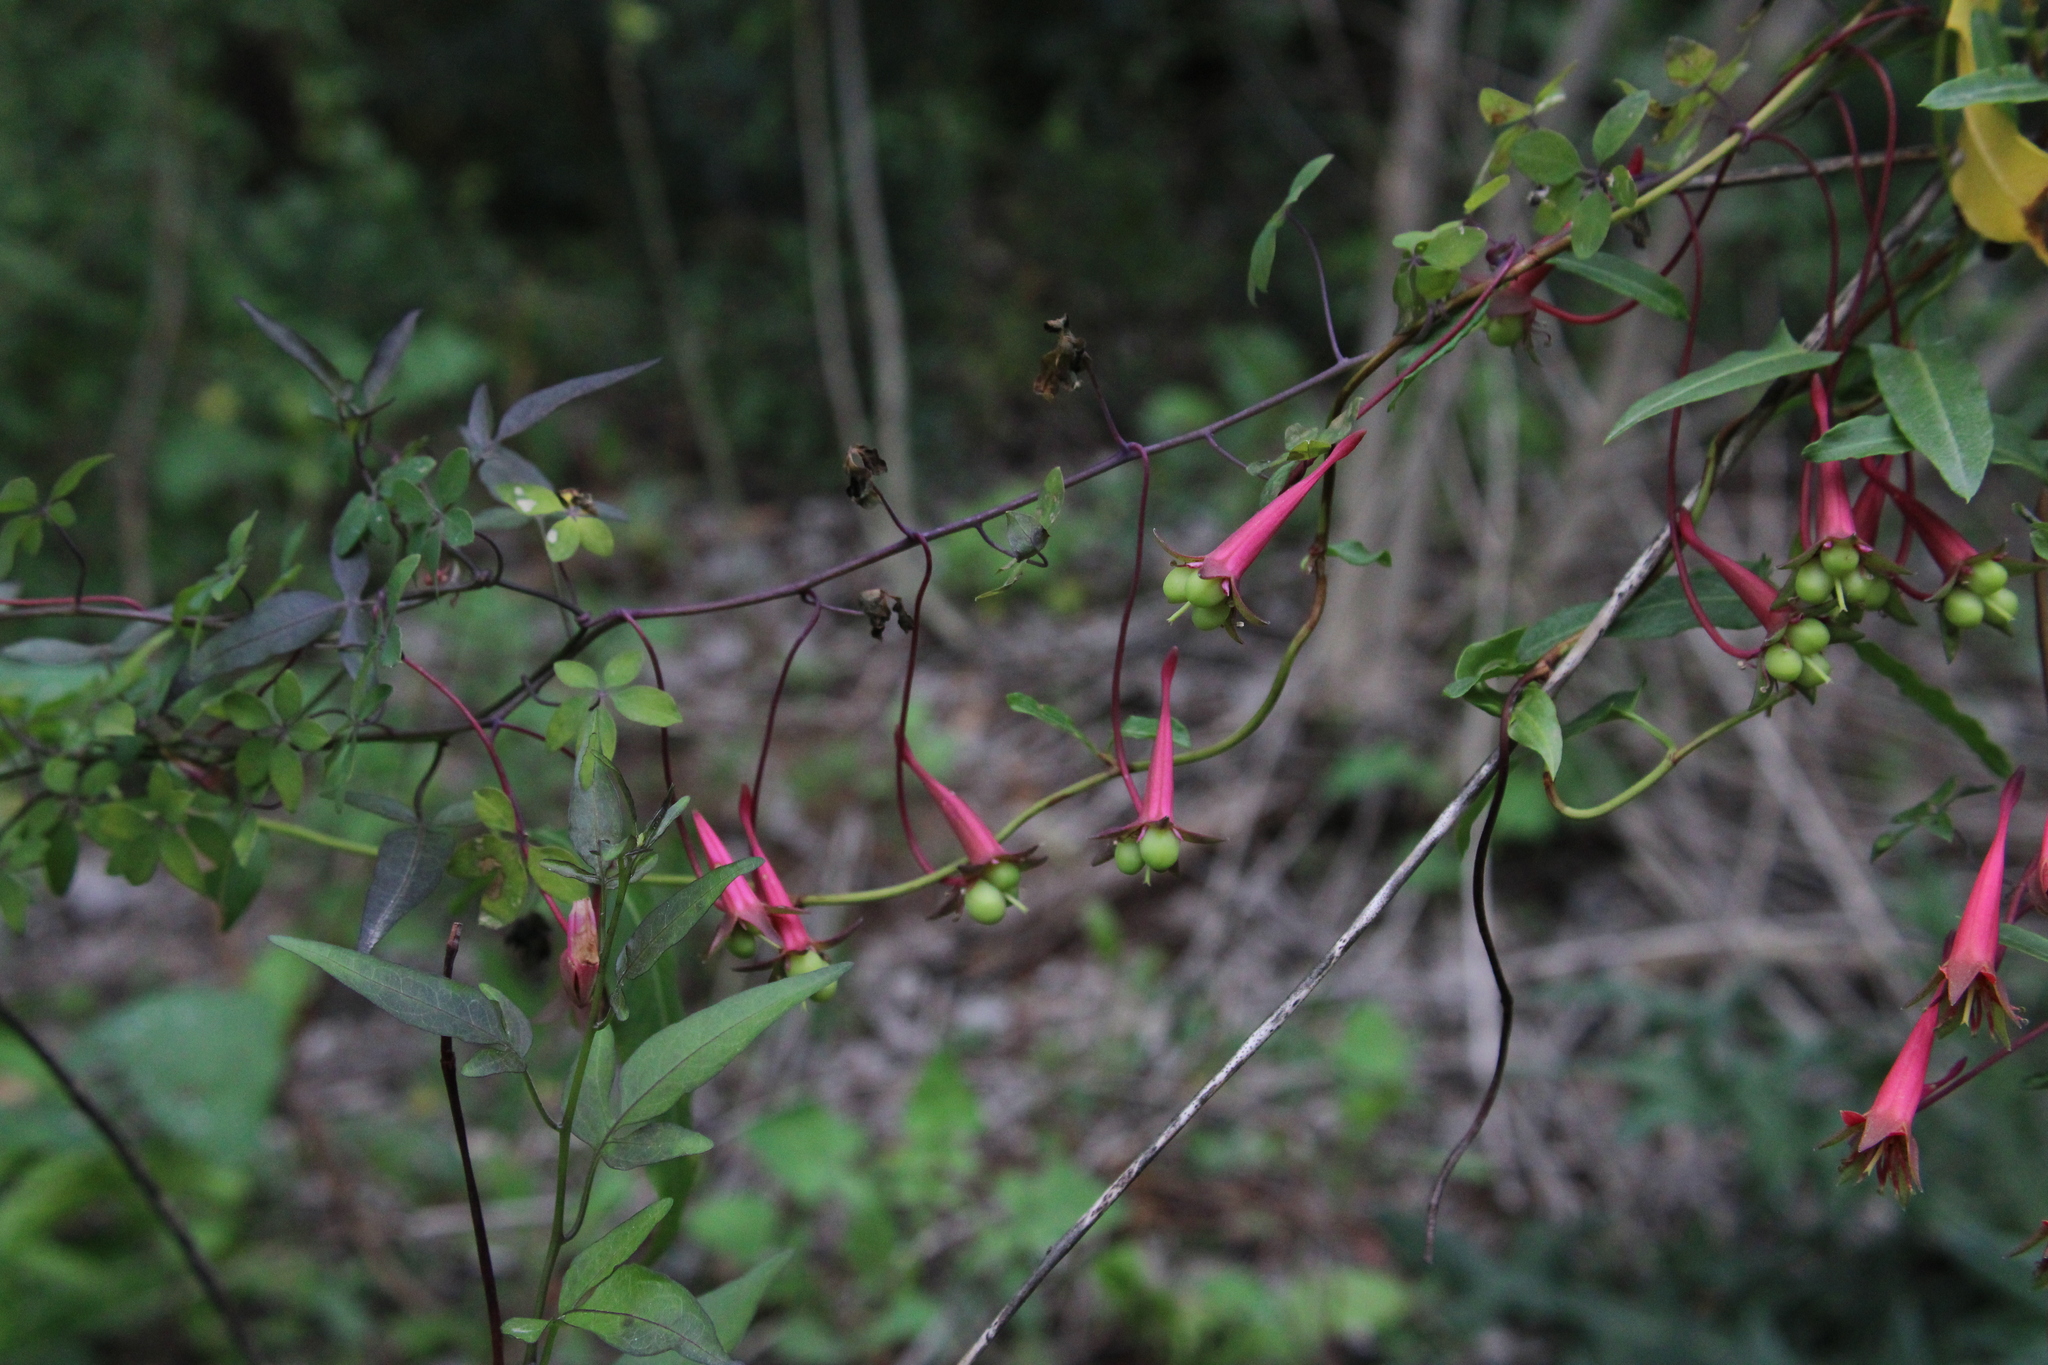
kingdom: Plantae
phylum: Tracheophyta
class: Magnoliopsida
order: Brassicales
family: Tropaeolaceae
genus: Tropaeolum
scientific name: Tropaeolum pentaphyllum
